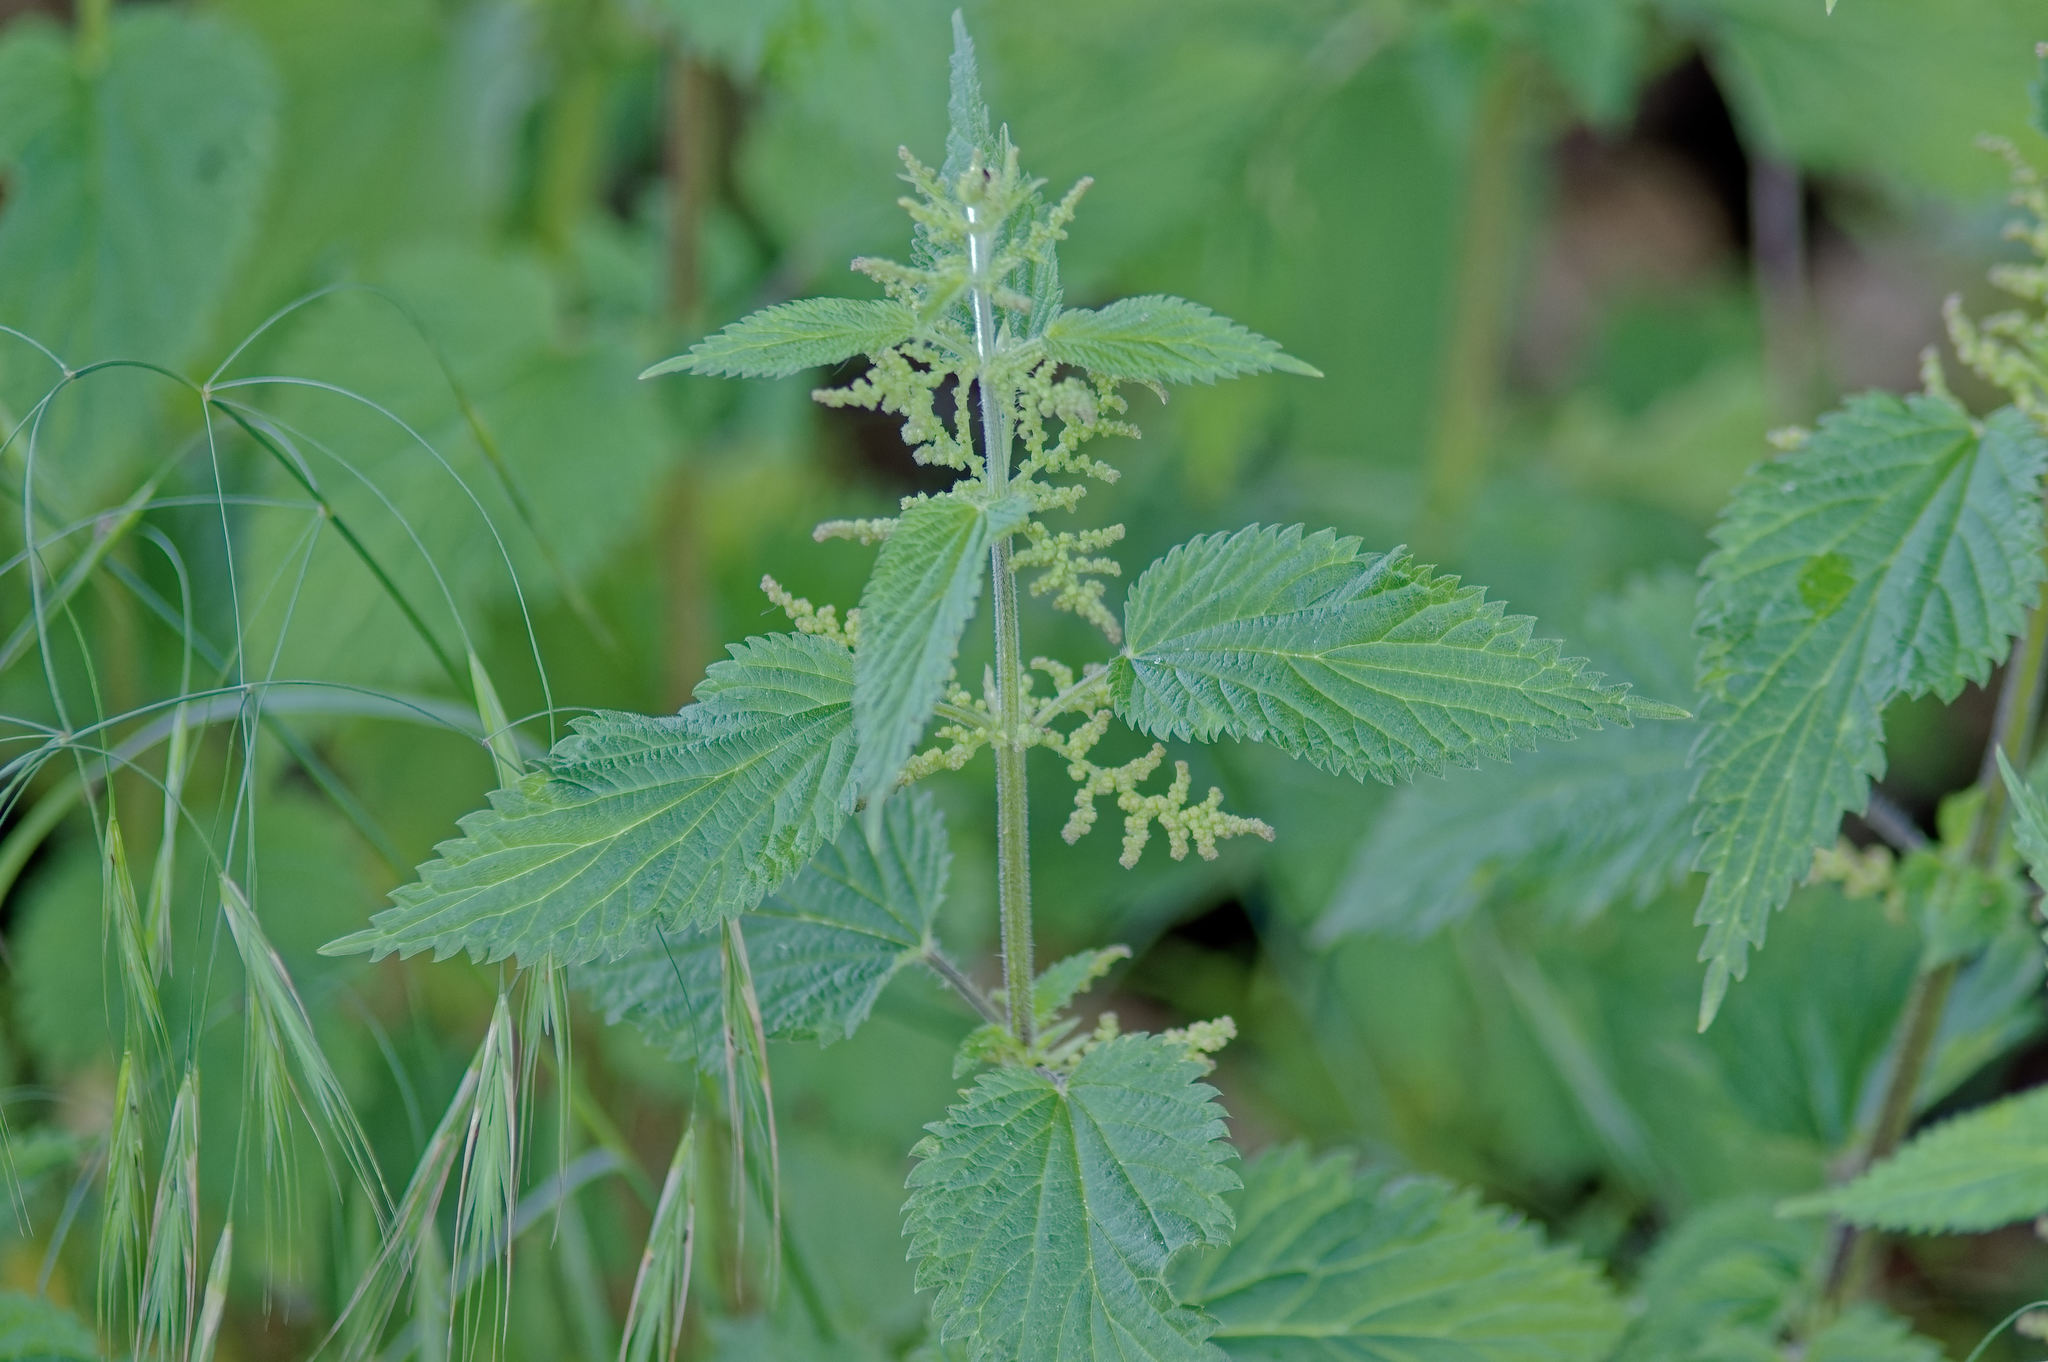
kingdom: Plantae
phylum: Tracheophyta
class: Magnoliopsida
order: Rosales
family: Urticaceae
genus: Urtica
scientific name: Urtica dioica
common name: Common nettle
